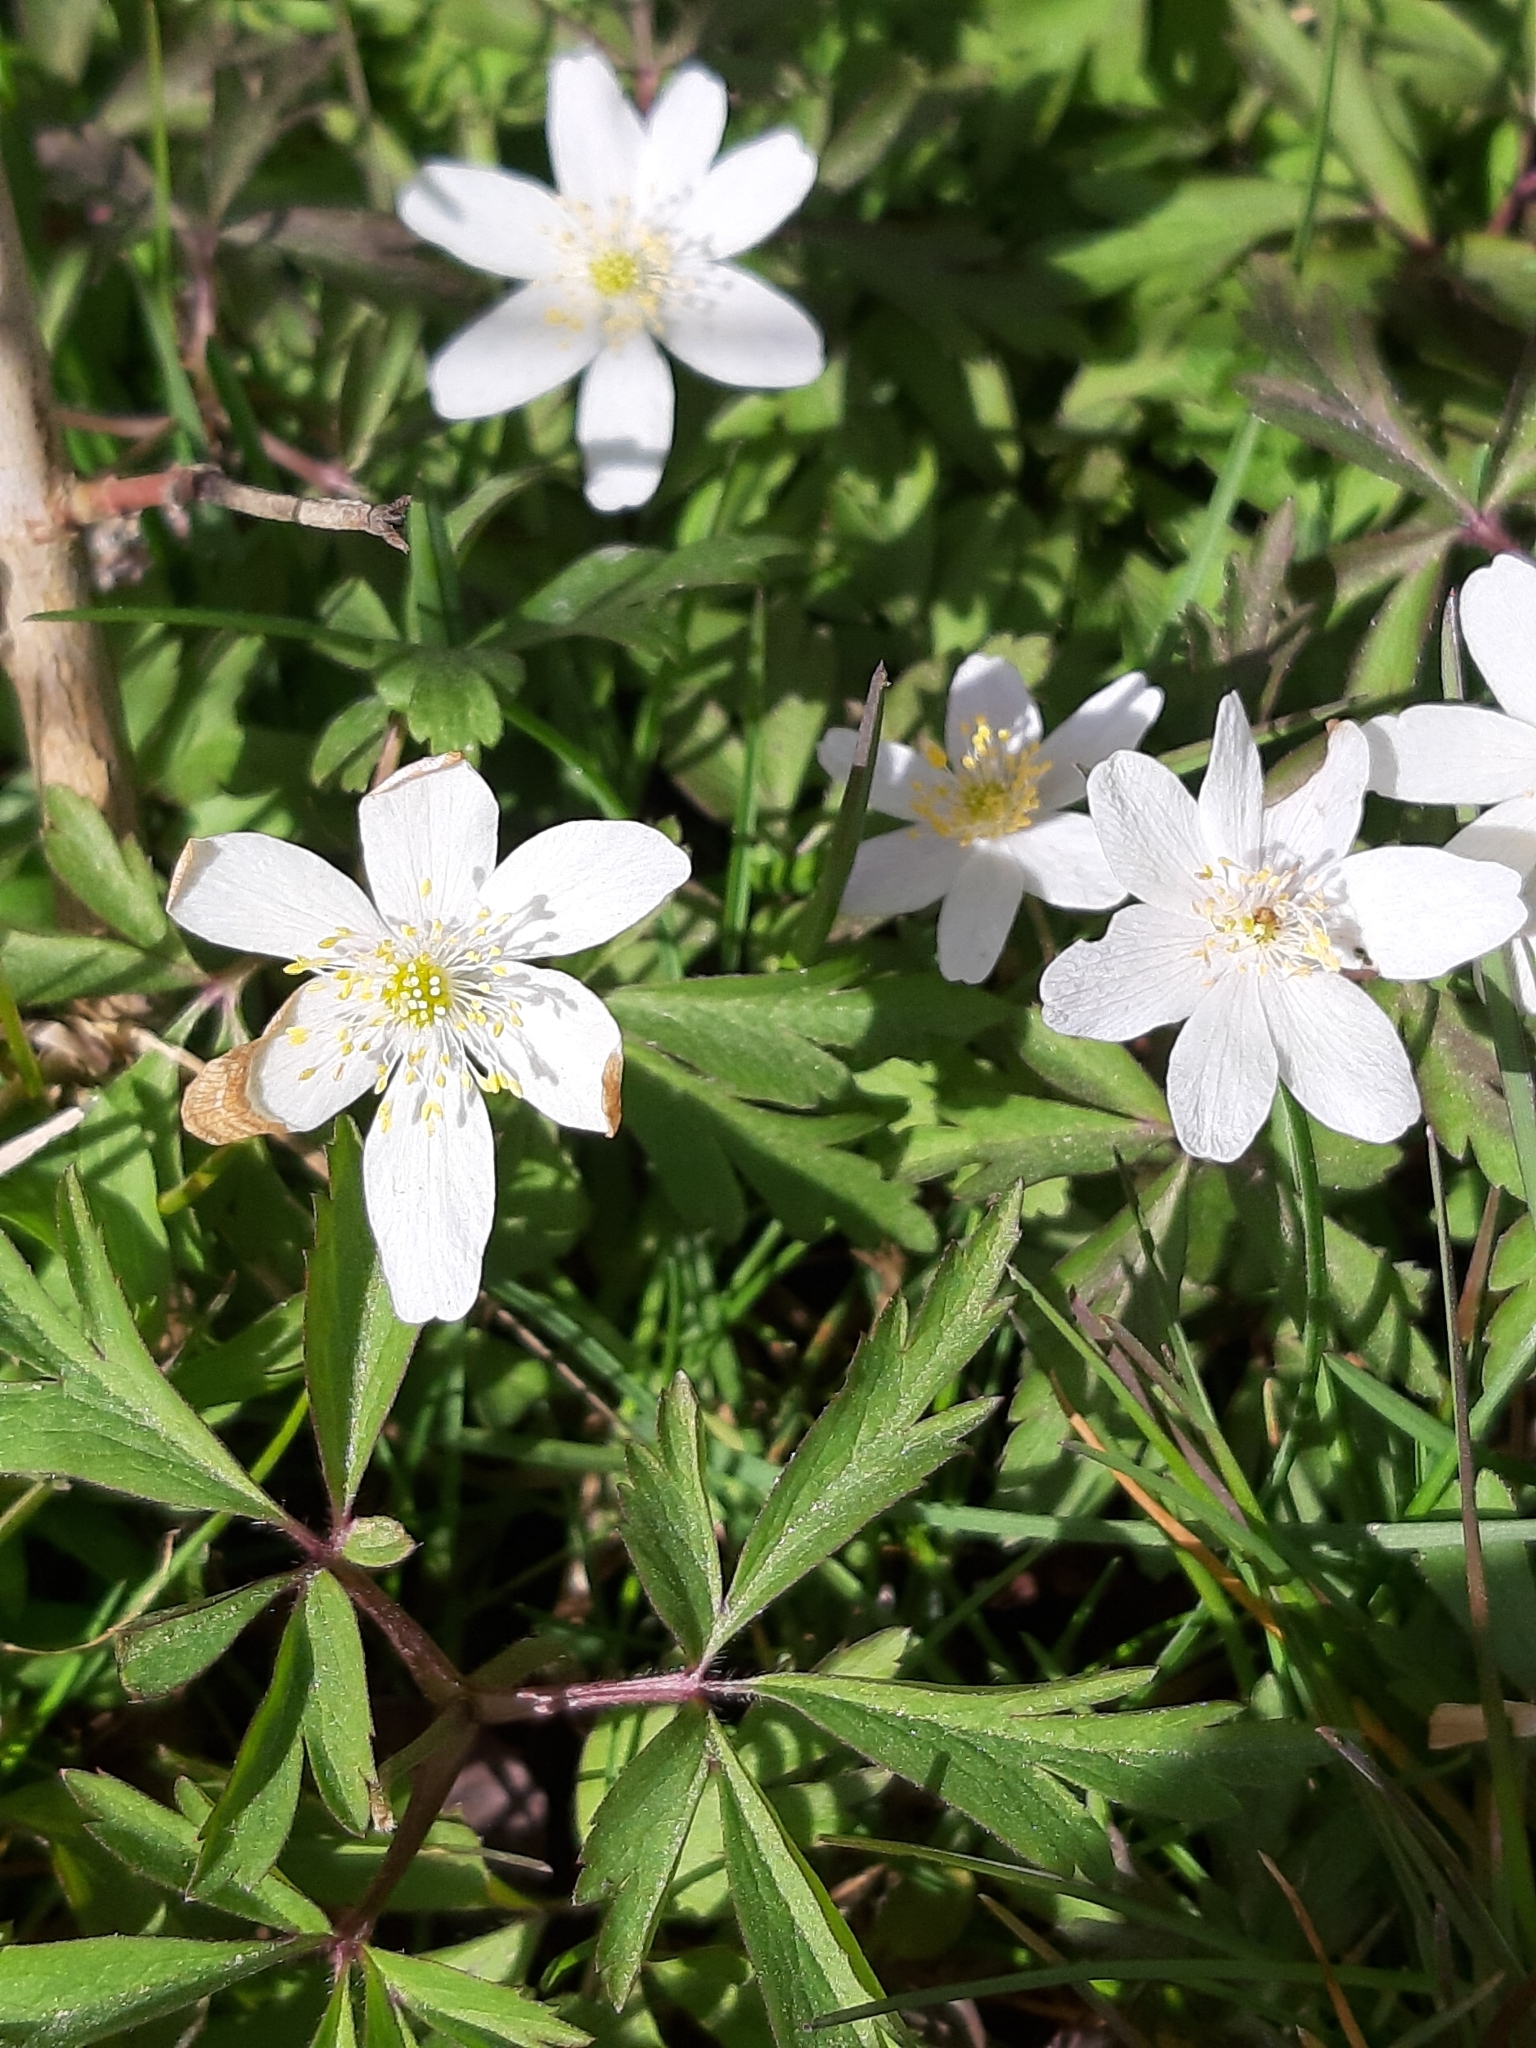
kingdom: Plantae
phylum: Tracheophyta
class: Magnoliopsida
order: Ranunculales
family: Ranunculaceae
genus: Anemone
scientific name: Anemone nemorosa
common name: Wood anemone
